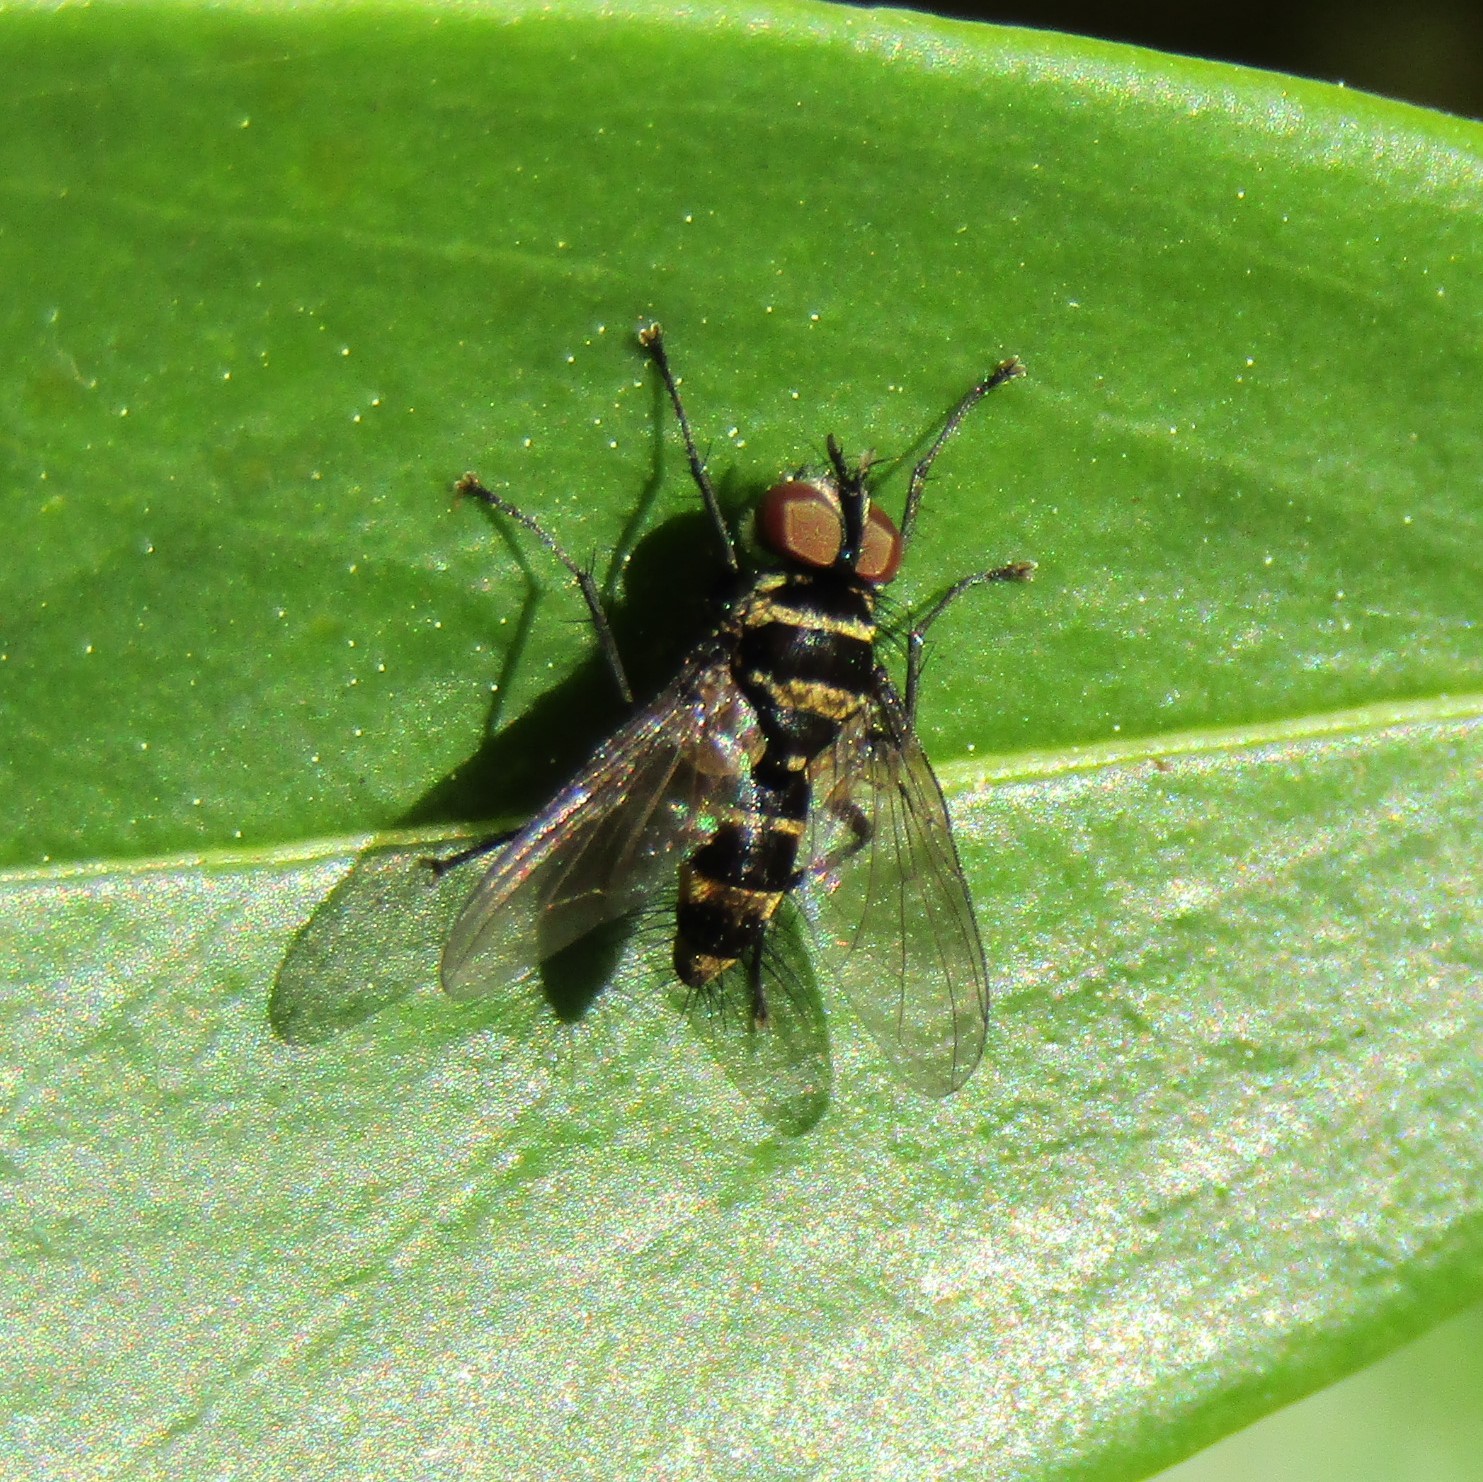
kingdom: Animalia
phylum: Arthropoda
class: Insecta
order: Diptera
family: Tachinidae
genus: Trigonospila
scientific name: Trigonospila brevifacies
